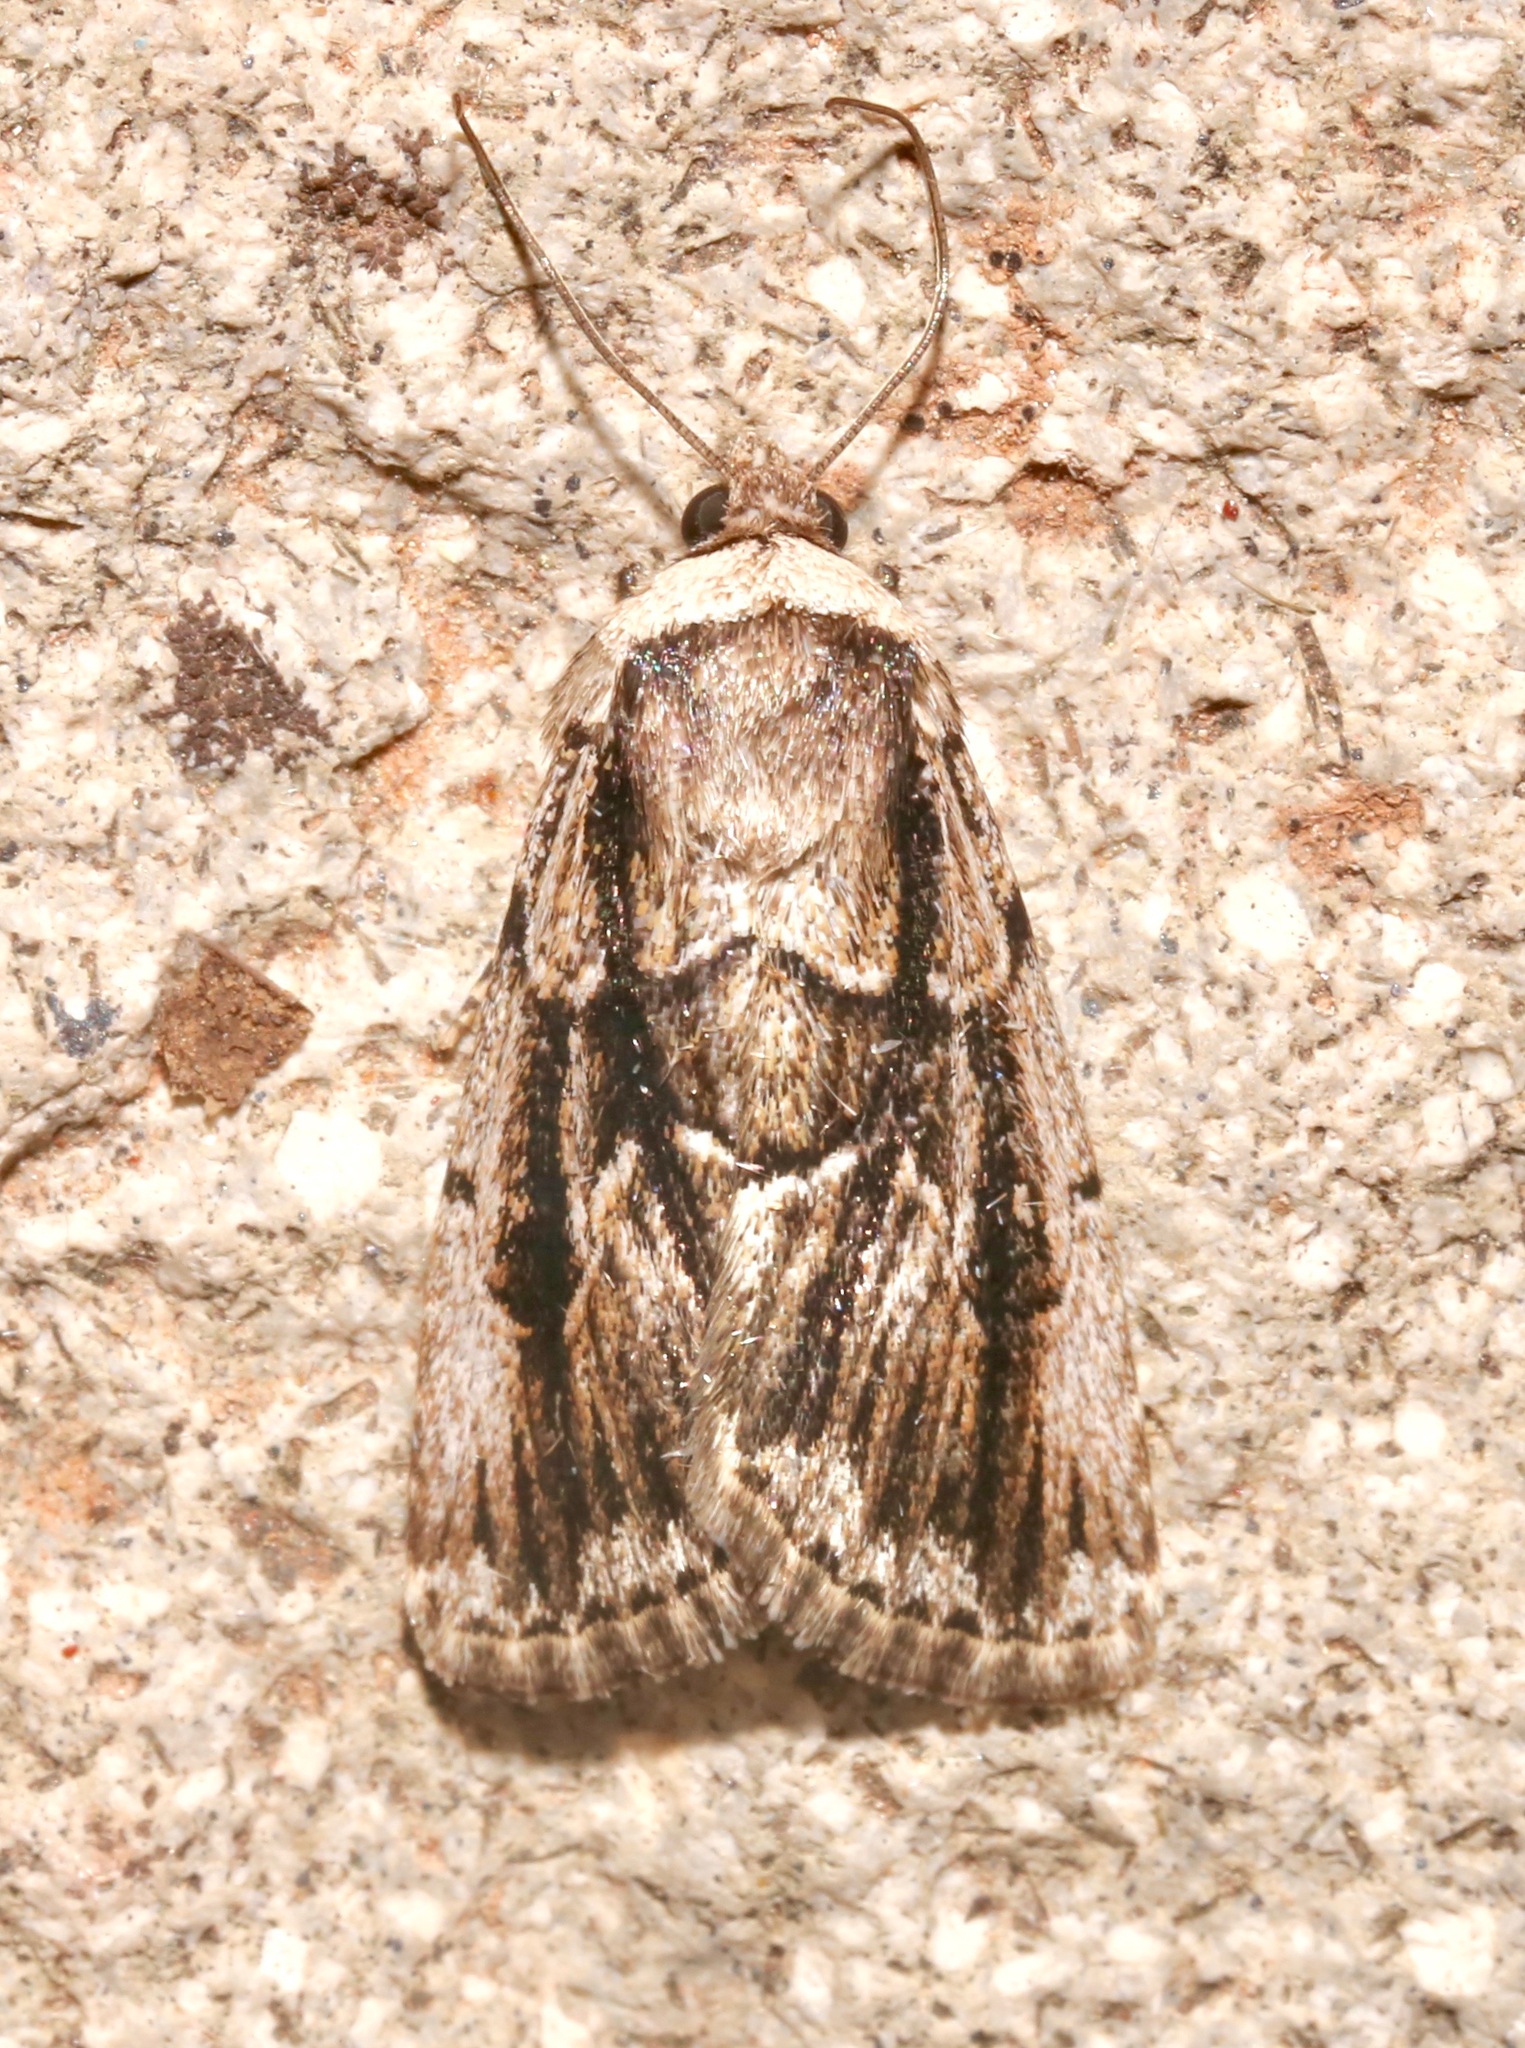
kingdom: Animalia
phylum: Arthropoda
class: Insecta
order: Lepidoptera
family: Noctuidae
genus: Sympistis
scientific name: Sympistis fifia
